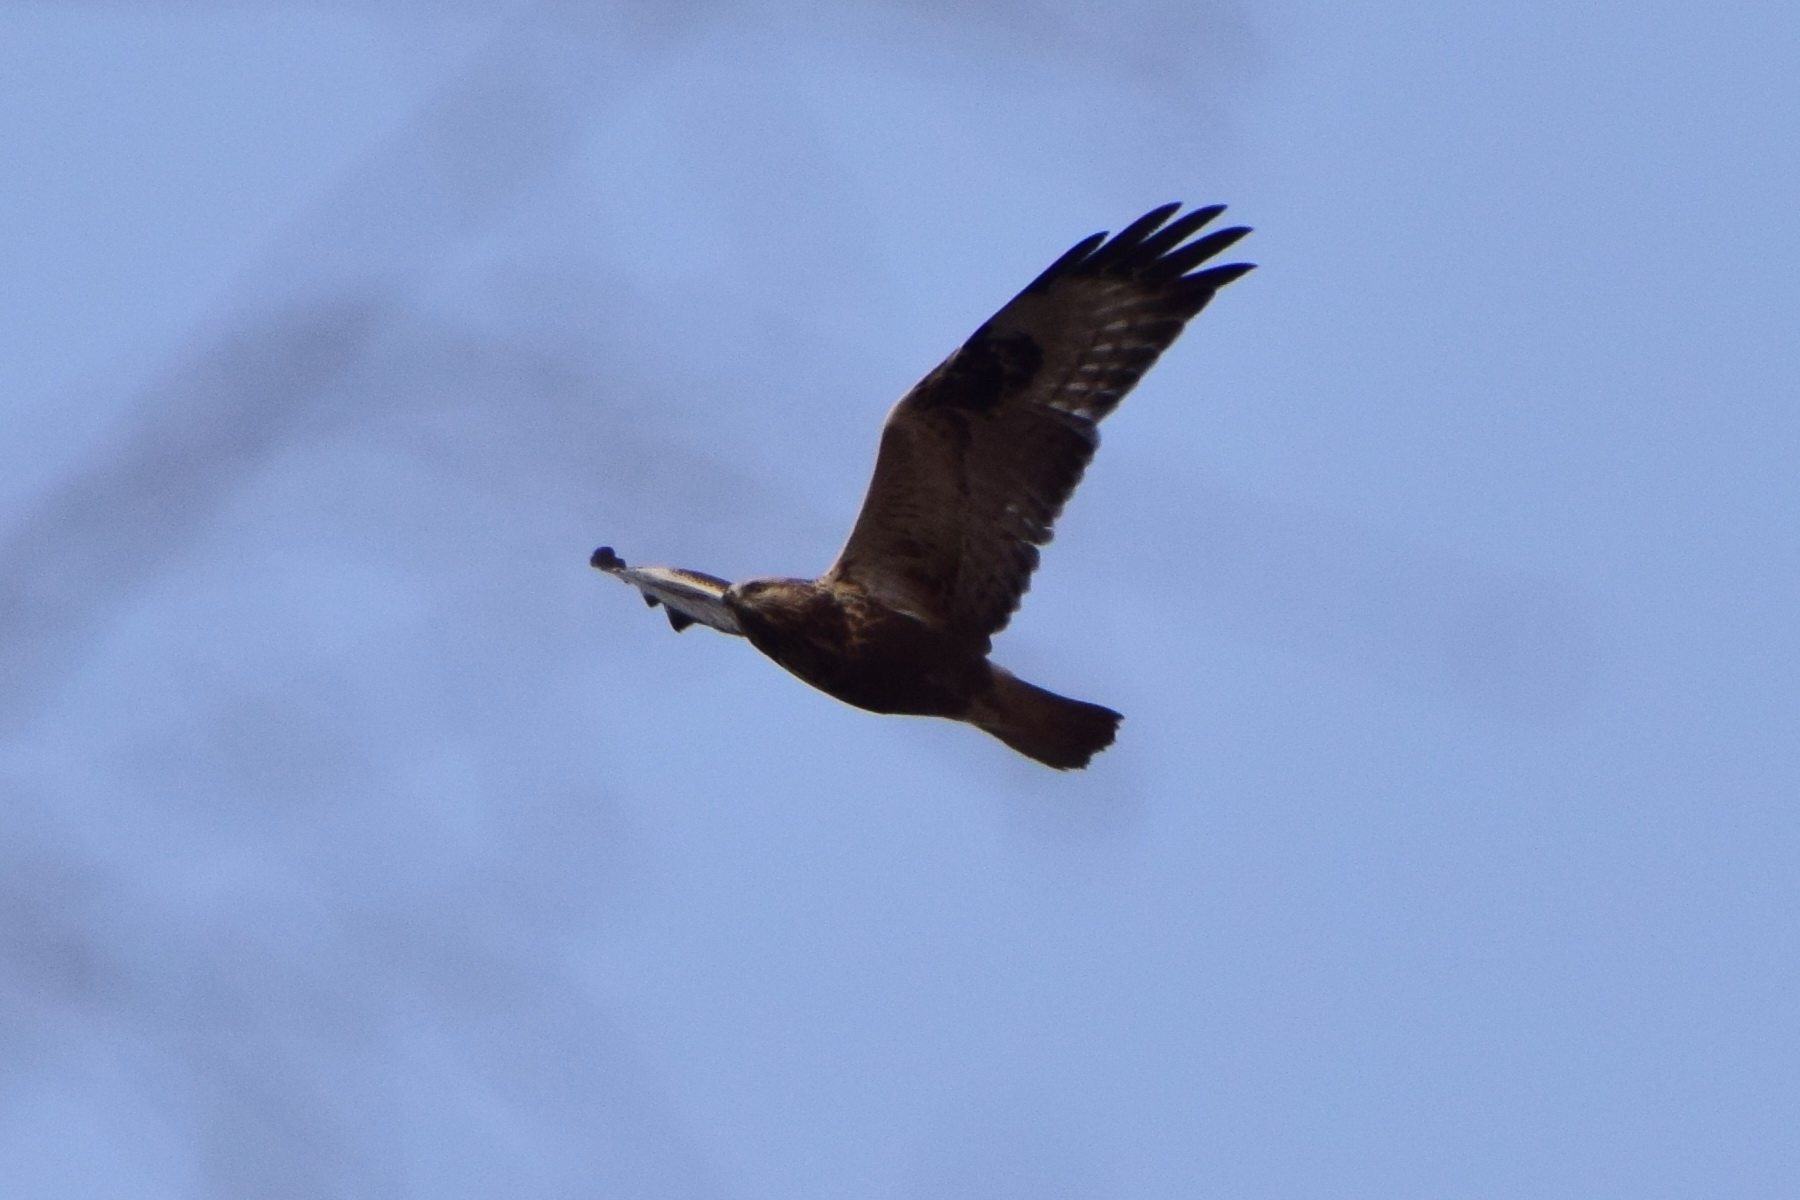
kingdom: Animalia
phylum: Chordata
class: Aves
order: Accipitriformes
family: Accipitridae
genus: Buteo
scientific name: Buteo lagopus
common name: Rough-legged buzzard
